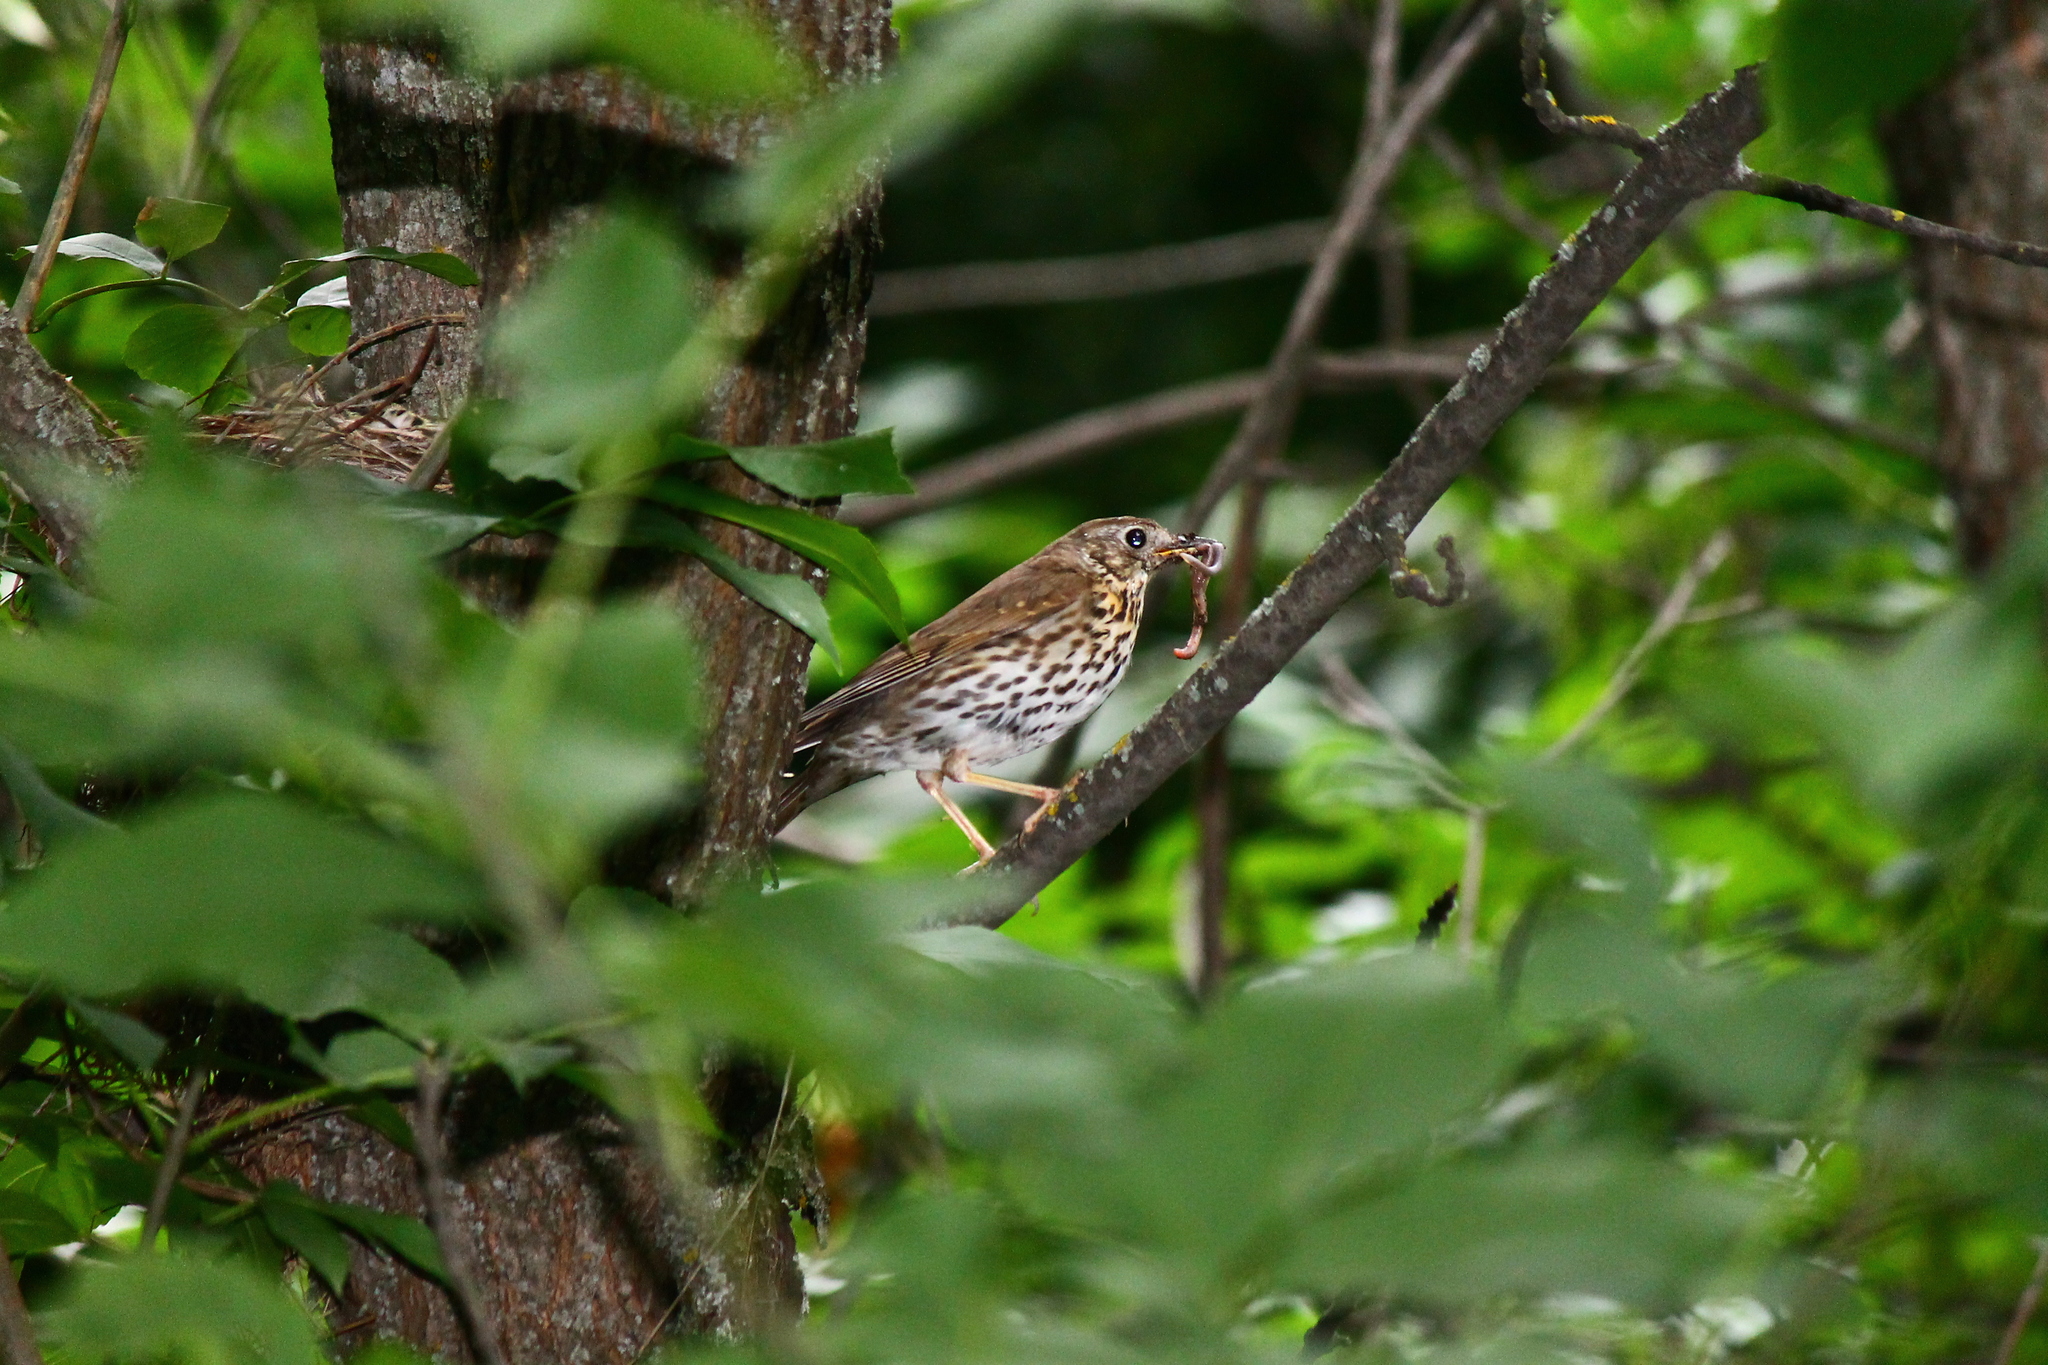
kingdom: Animalia
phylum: Chordata
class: Aves
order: Passeriformes
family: Turdidae
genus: Turdus
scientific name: Turdus philomelos
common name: Song thrush
